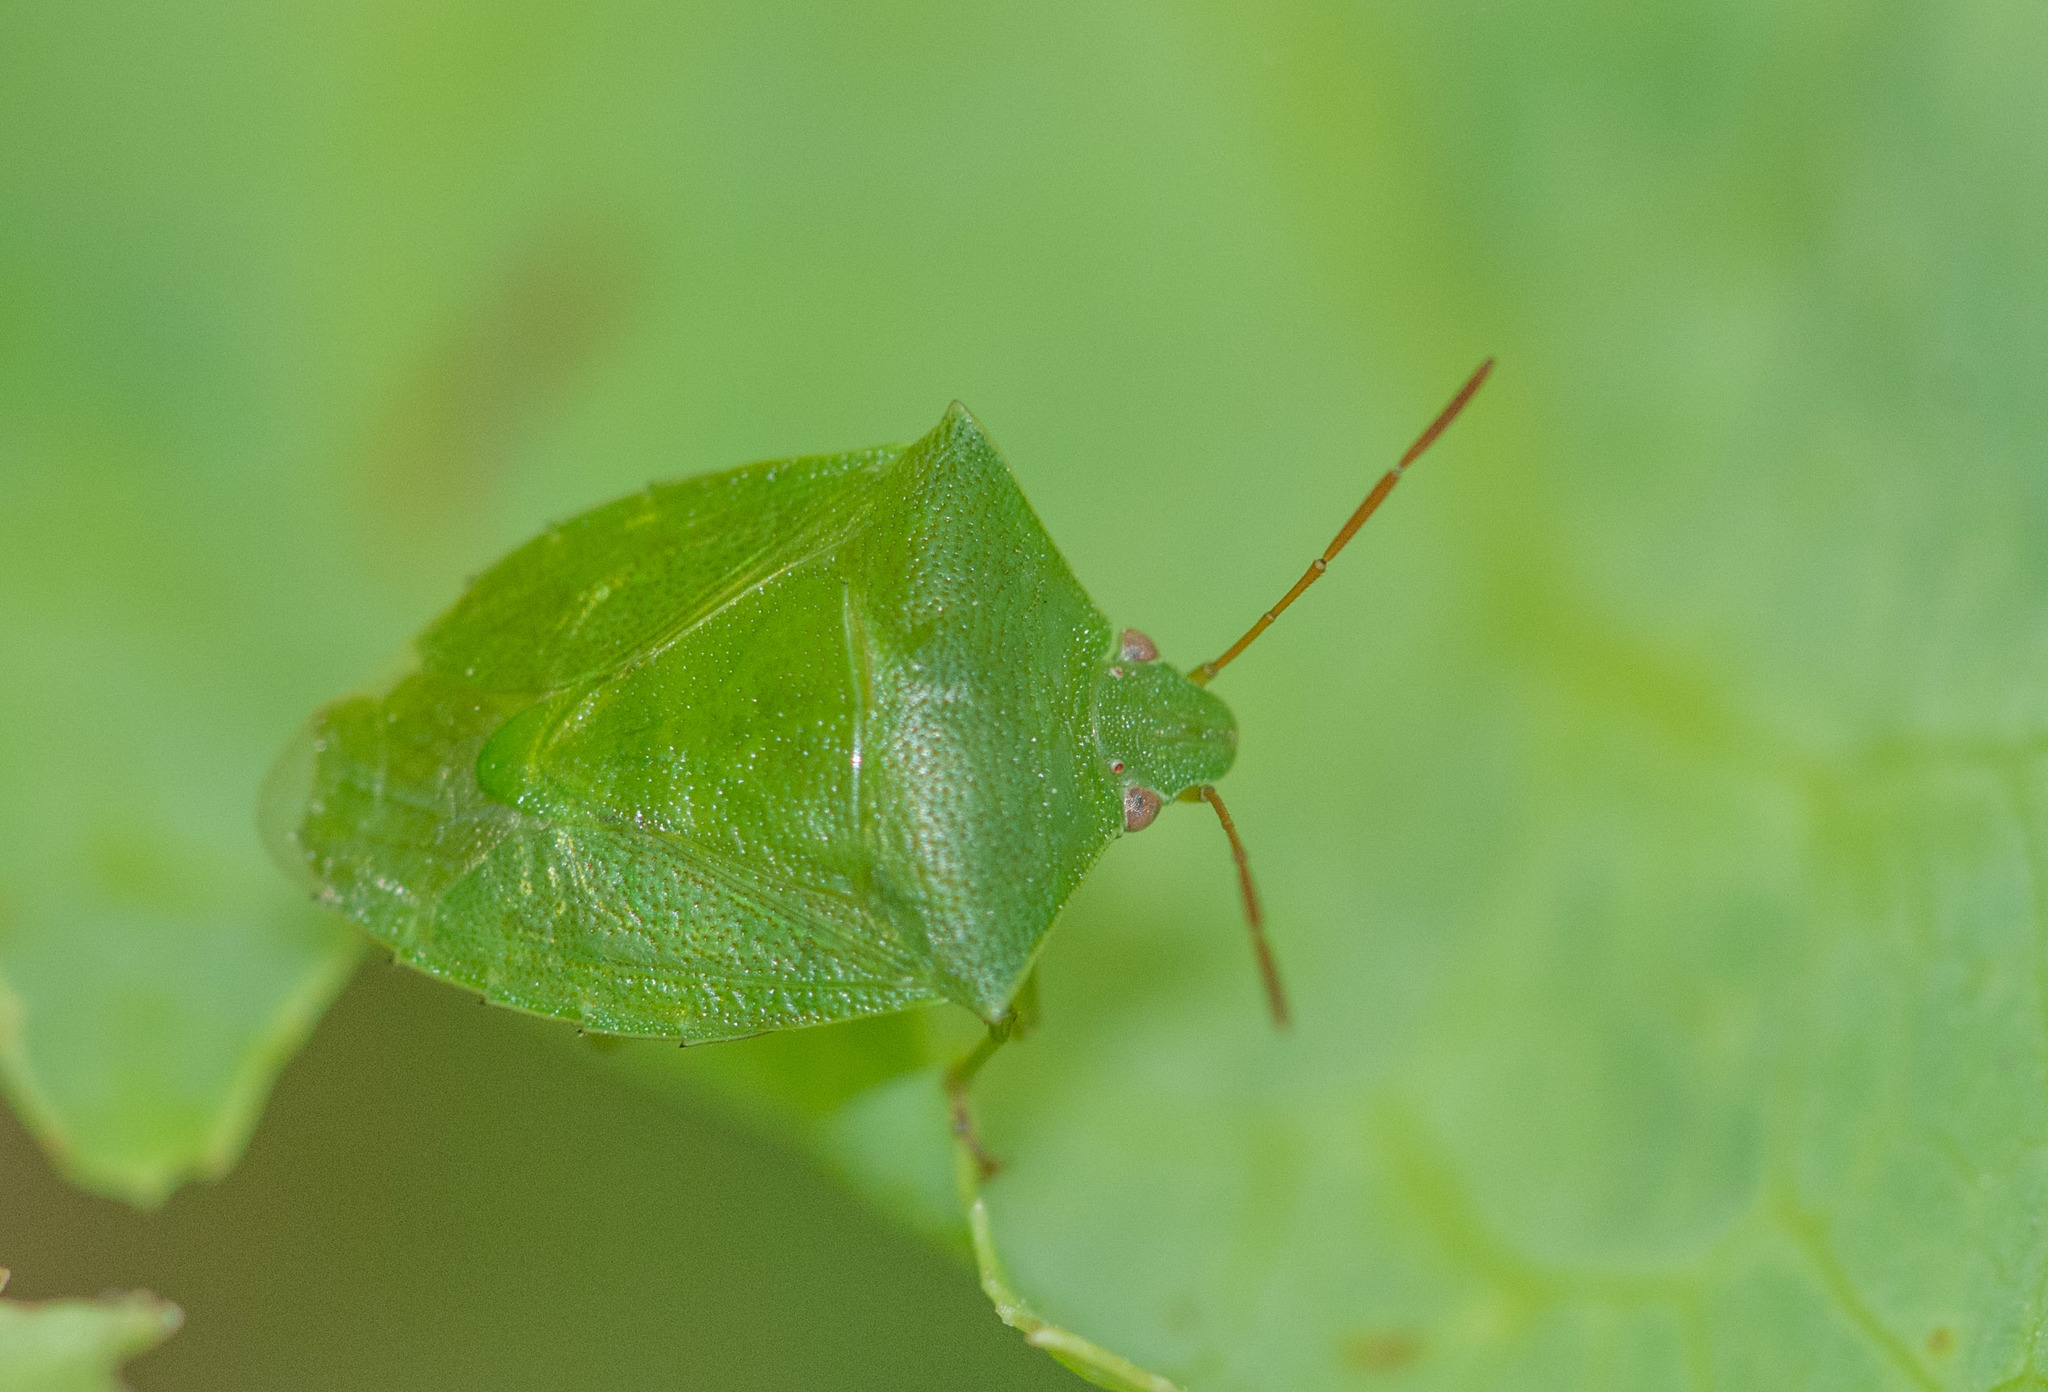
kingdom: Animalia
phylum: Arthropoda
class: Insecta
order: Hemiptera
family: Pentatomidae
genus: Cuspicona
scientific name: Cuspicona simplex
